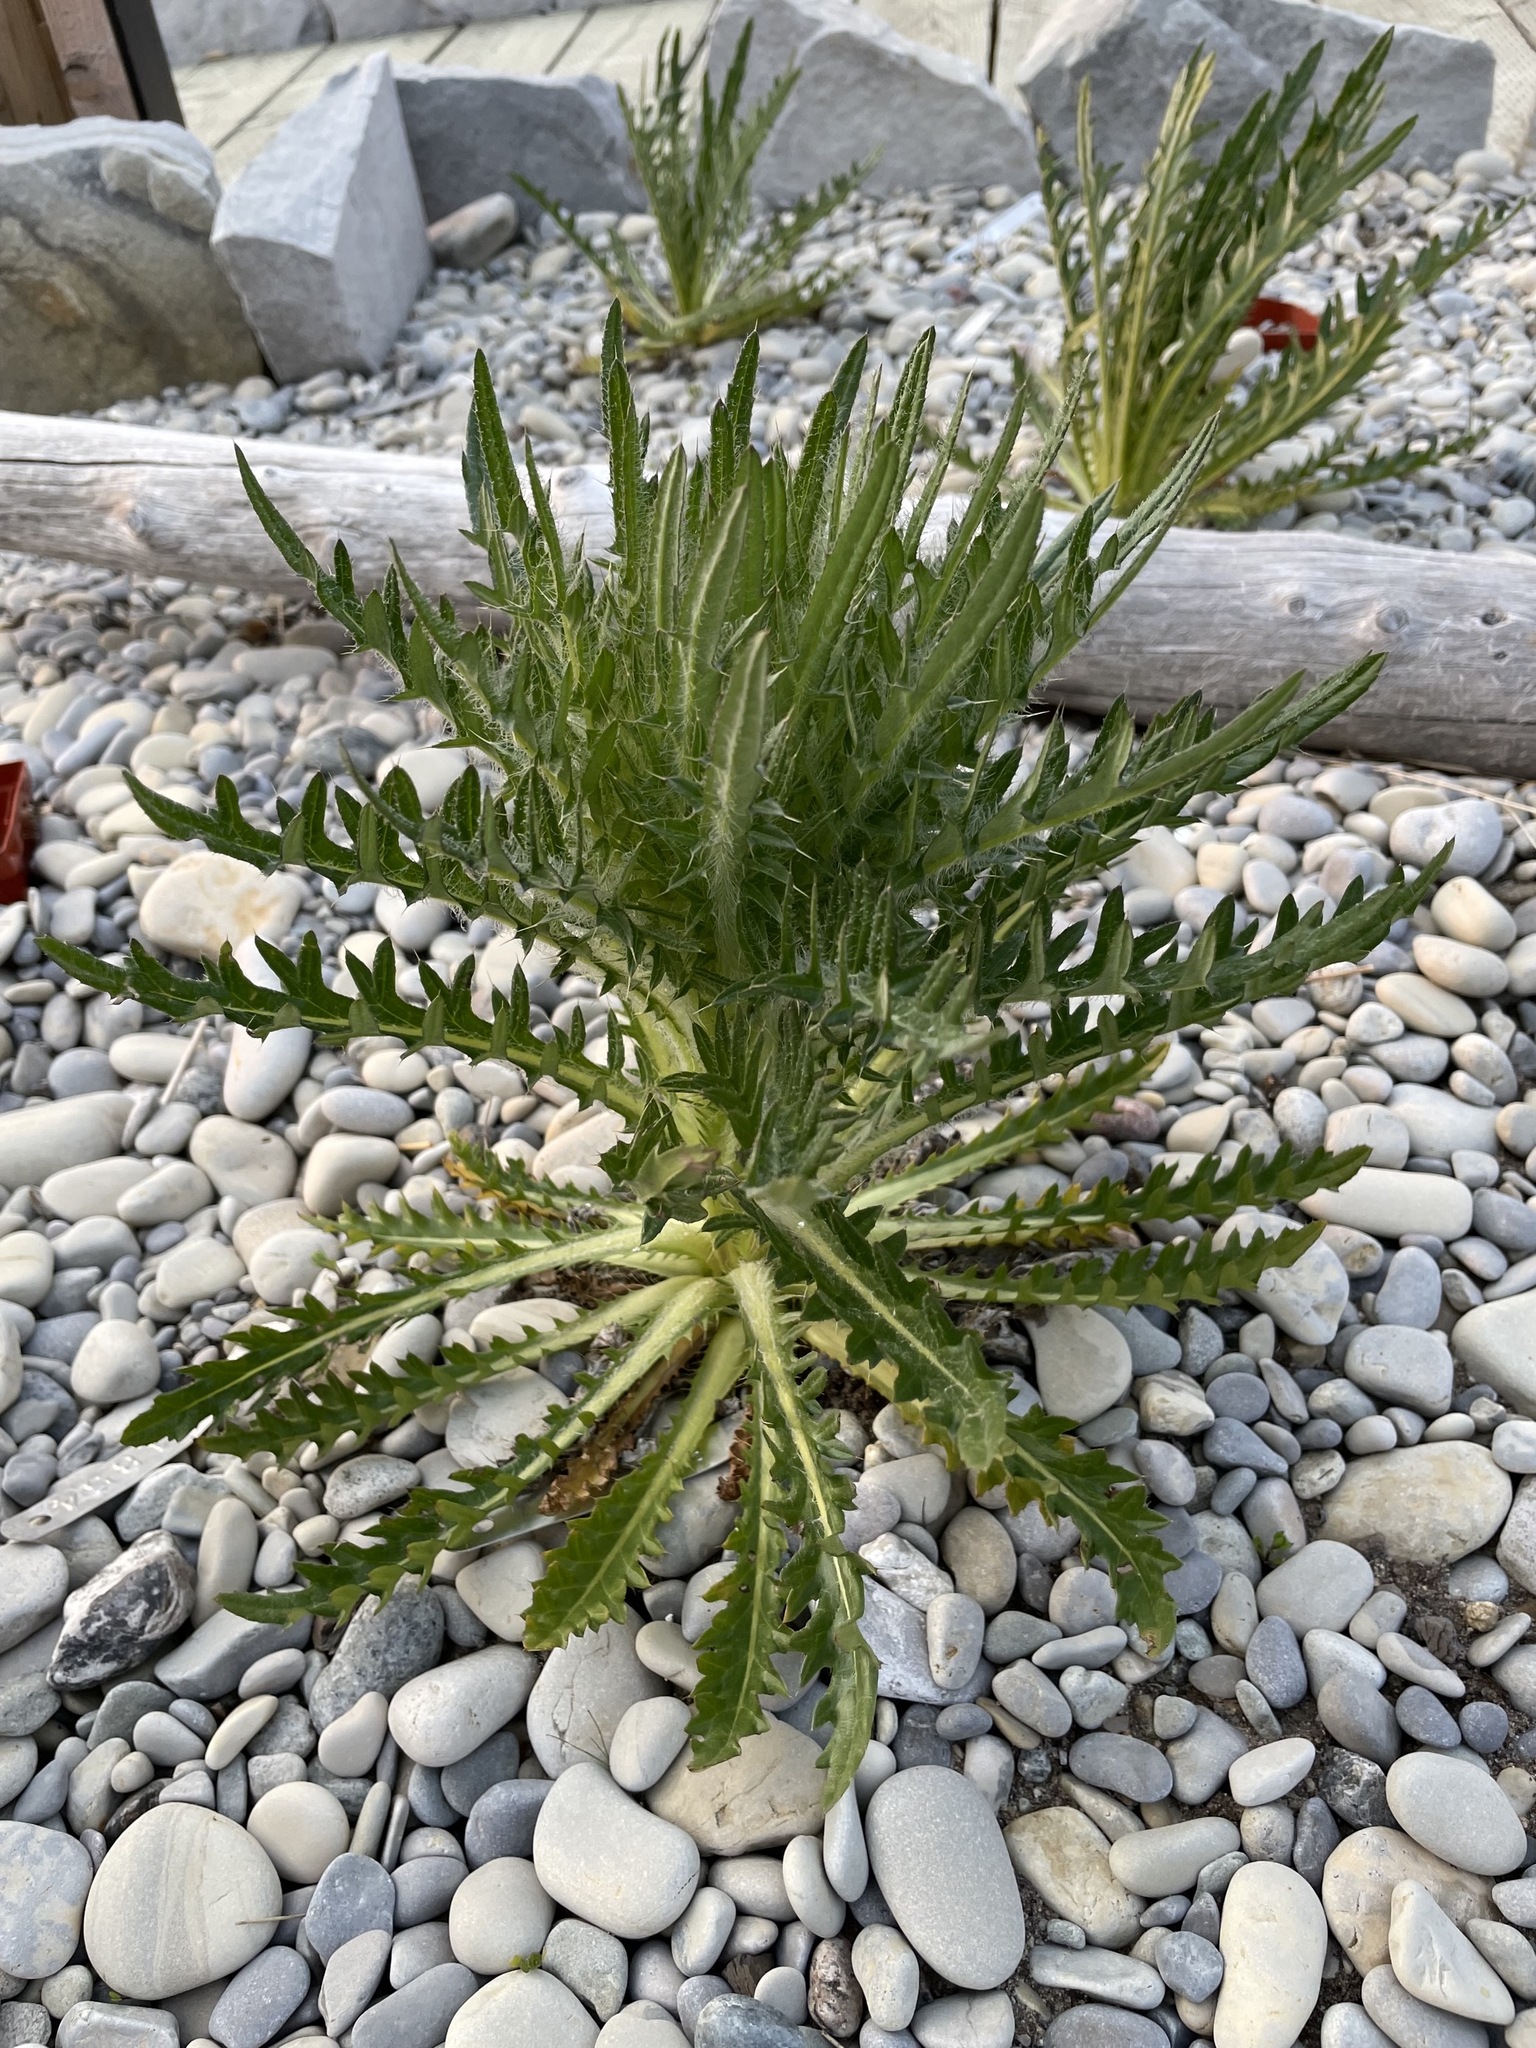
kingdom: Plantae
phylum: Tracheophyta
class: Magnoliopsida
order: Asterales
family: Asteraceae
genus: Cirsium
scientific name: Cirsium scariosum
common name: Meadow thistle
